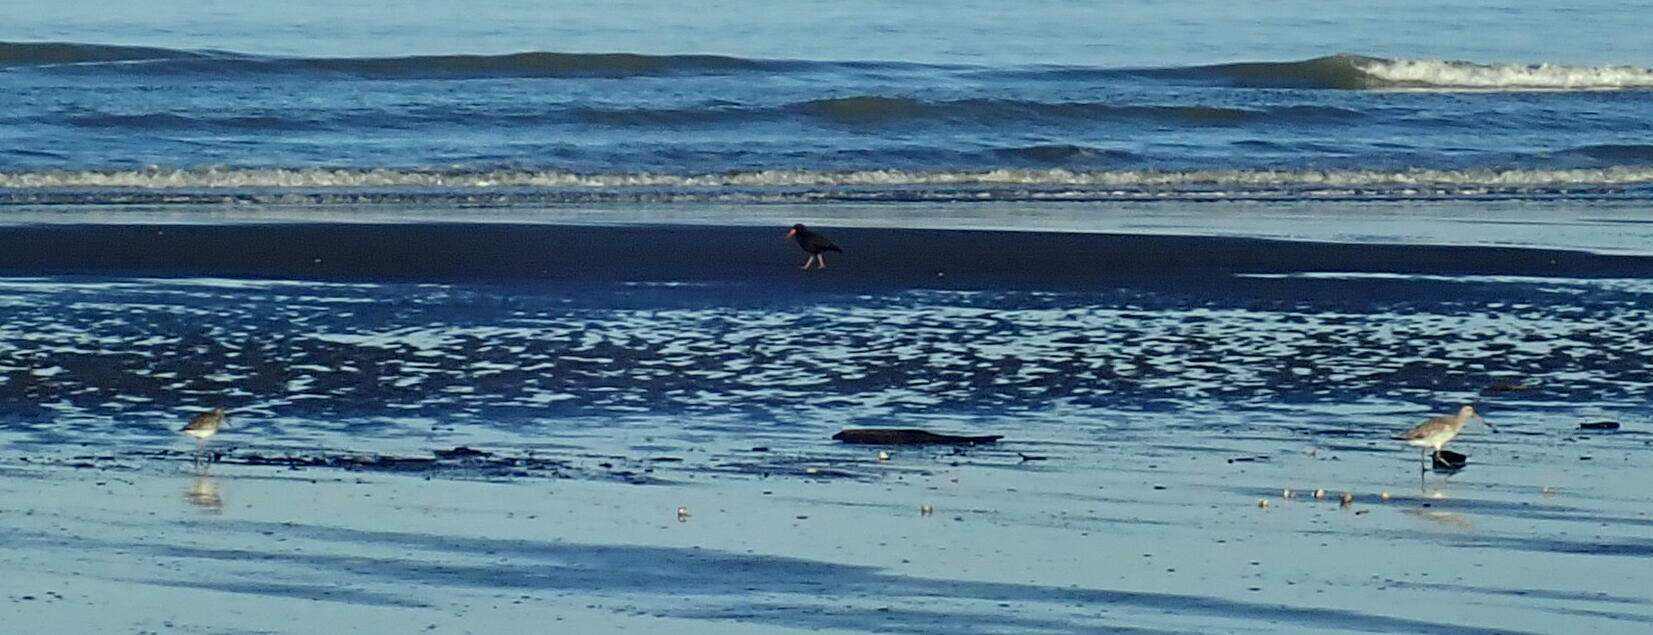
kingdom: Animalia
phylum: Chordata
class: Aves
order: Charadriiformes
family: Scolopacidae
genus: Limosa
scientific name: Limosa lapponica
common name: Bar-tailed godwit
